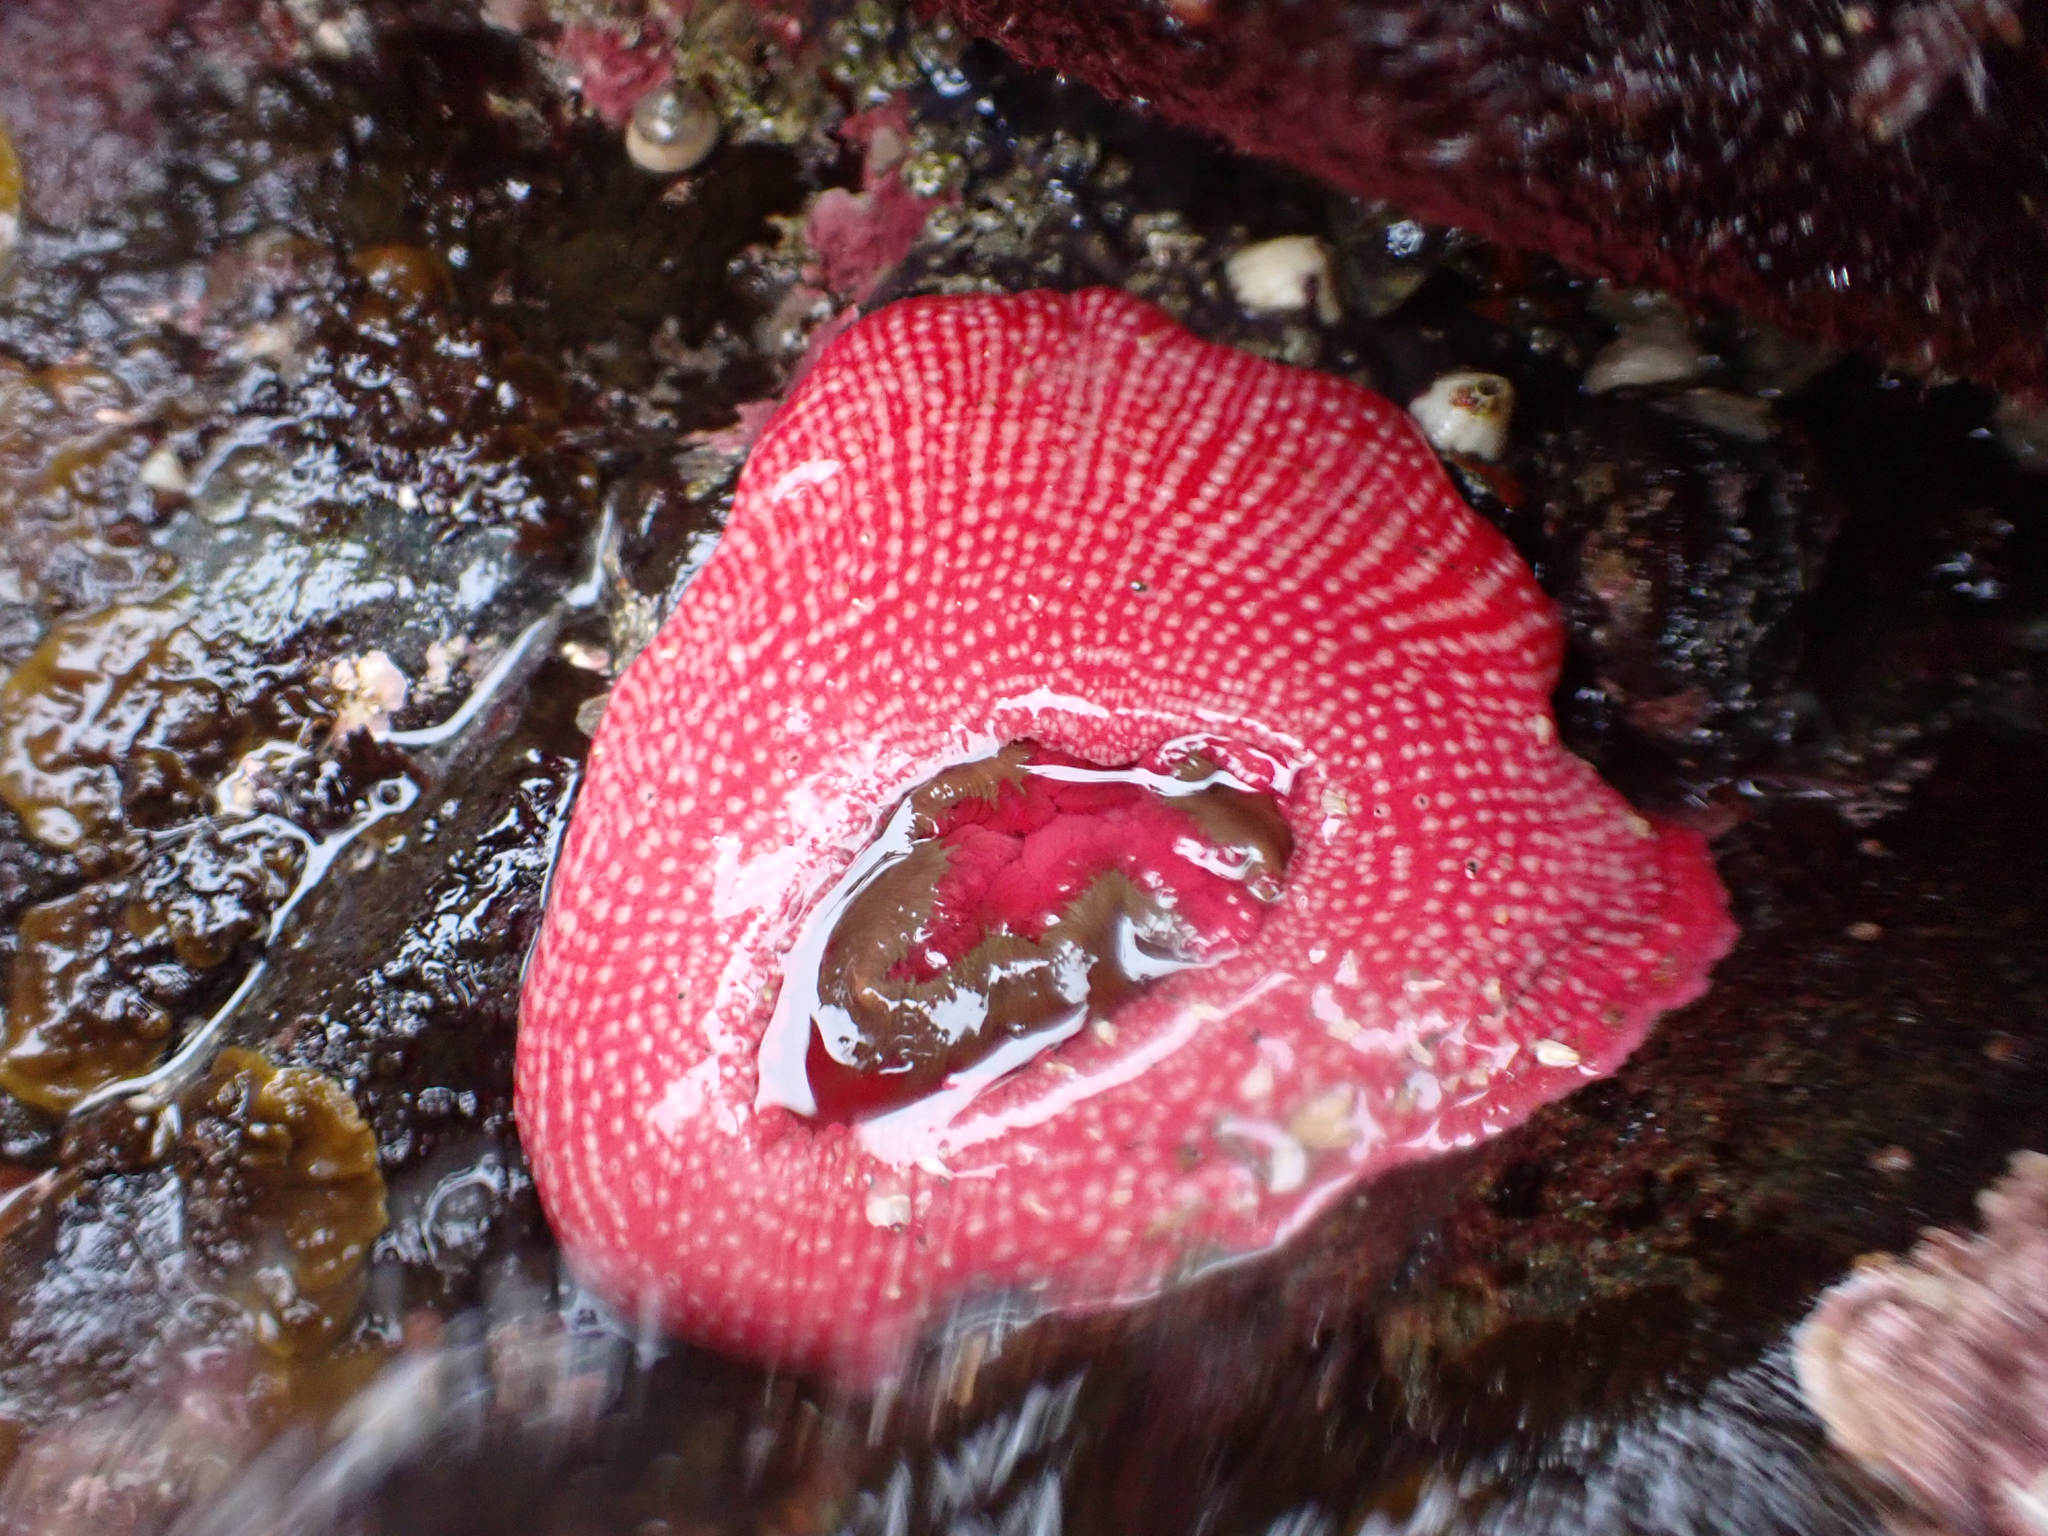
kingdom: Animalia
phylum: Cnidaria
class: Anthozoa
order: Actiniaria
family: Actiniidae
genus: Cribrinopsis
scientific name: Cribrinopsis albopunctata
